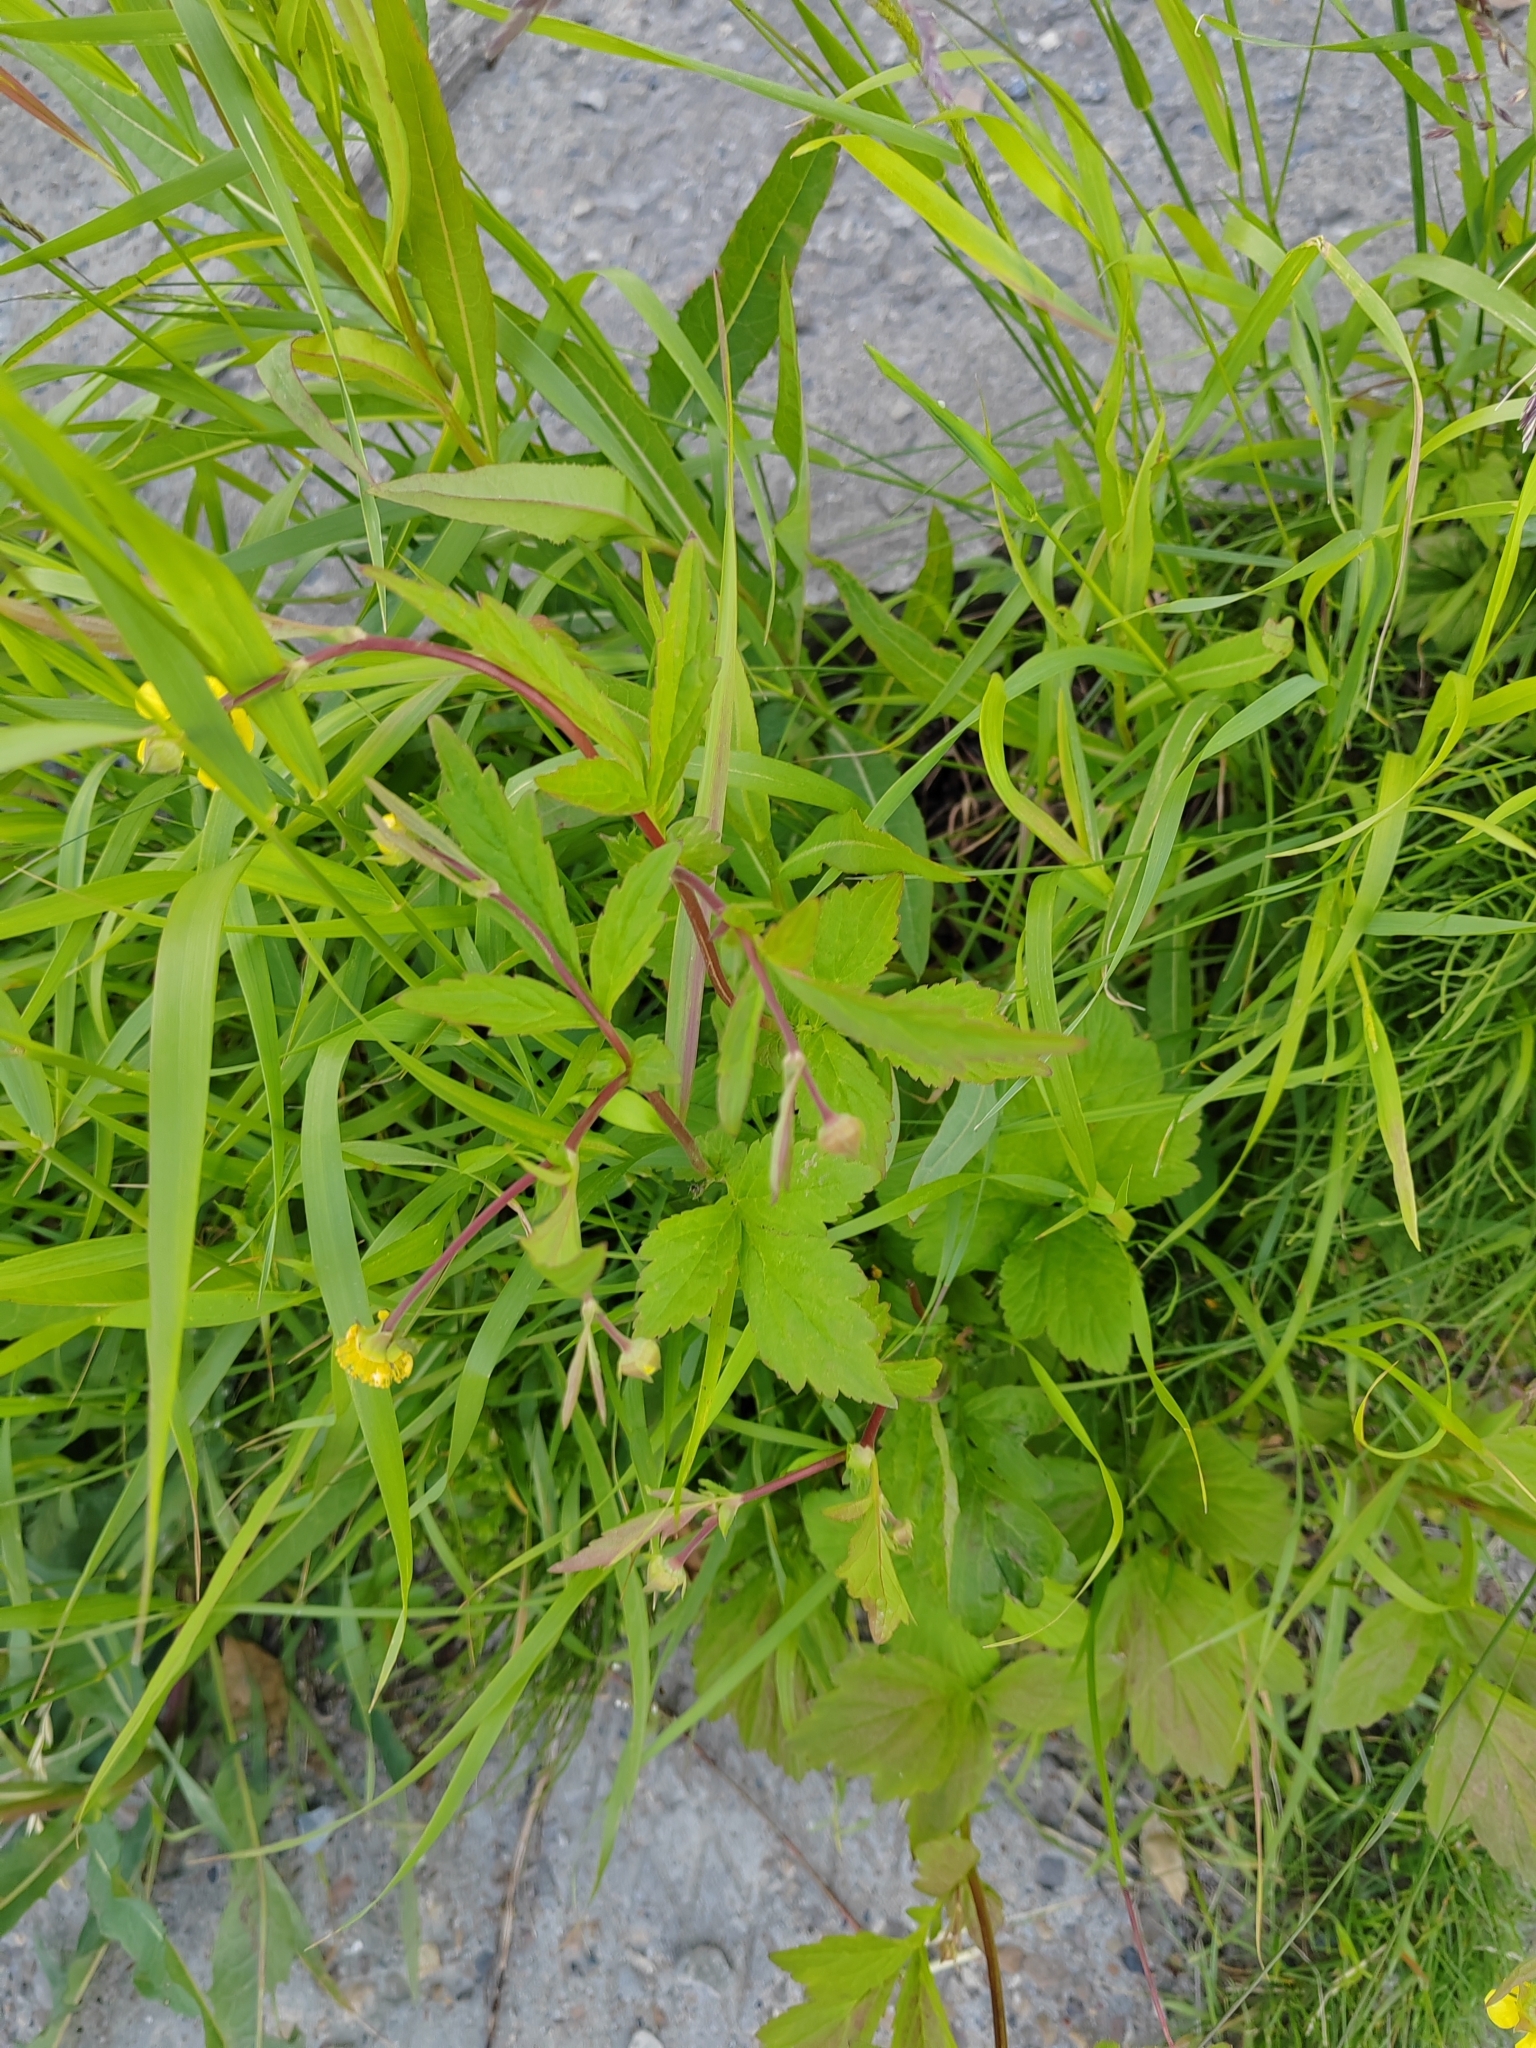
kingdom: Plantae
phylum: Tracheophyta
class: Magnoliopsida
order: Rosales
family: Rosaceae
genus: Geum
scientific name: Geum aleppicum
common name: Yellow avens
